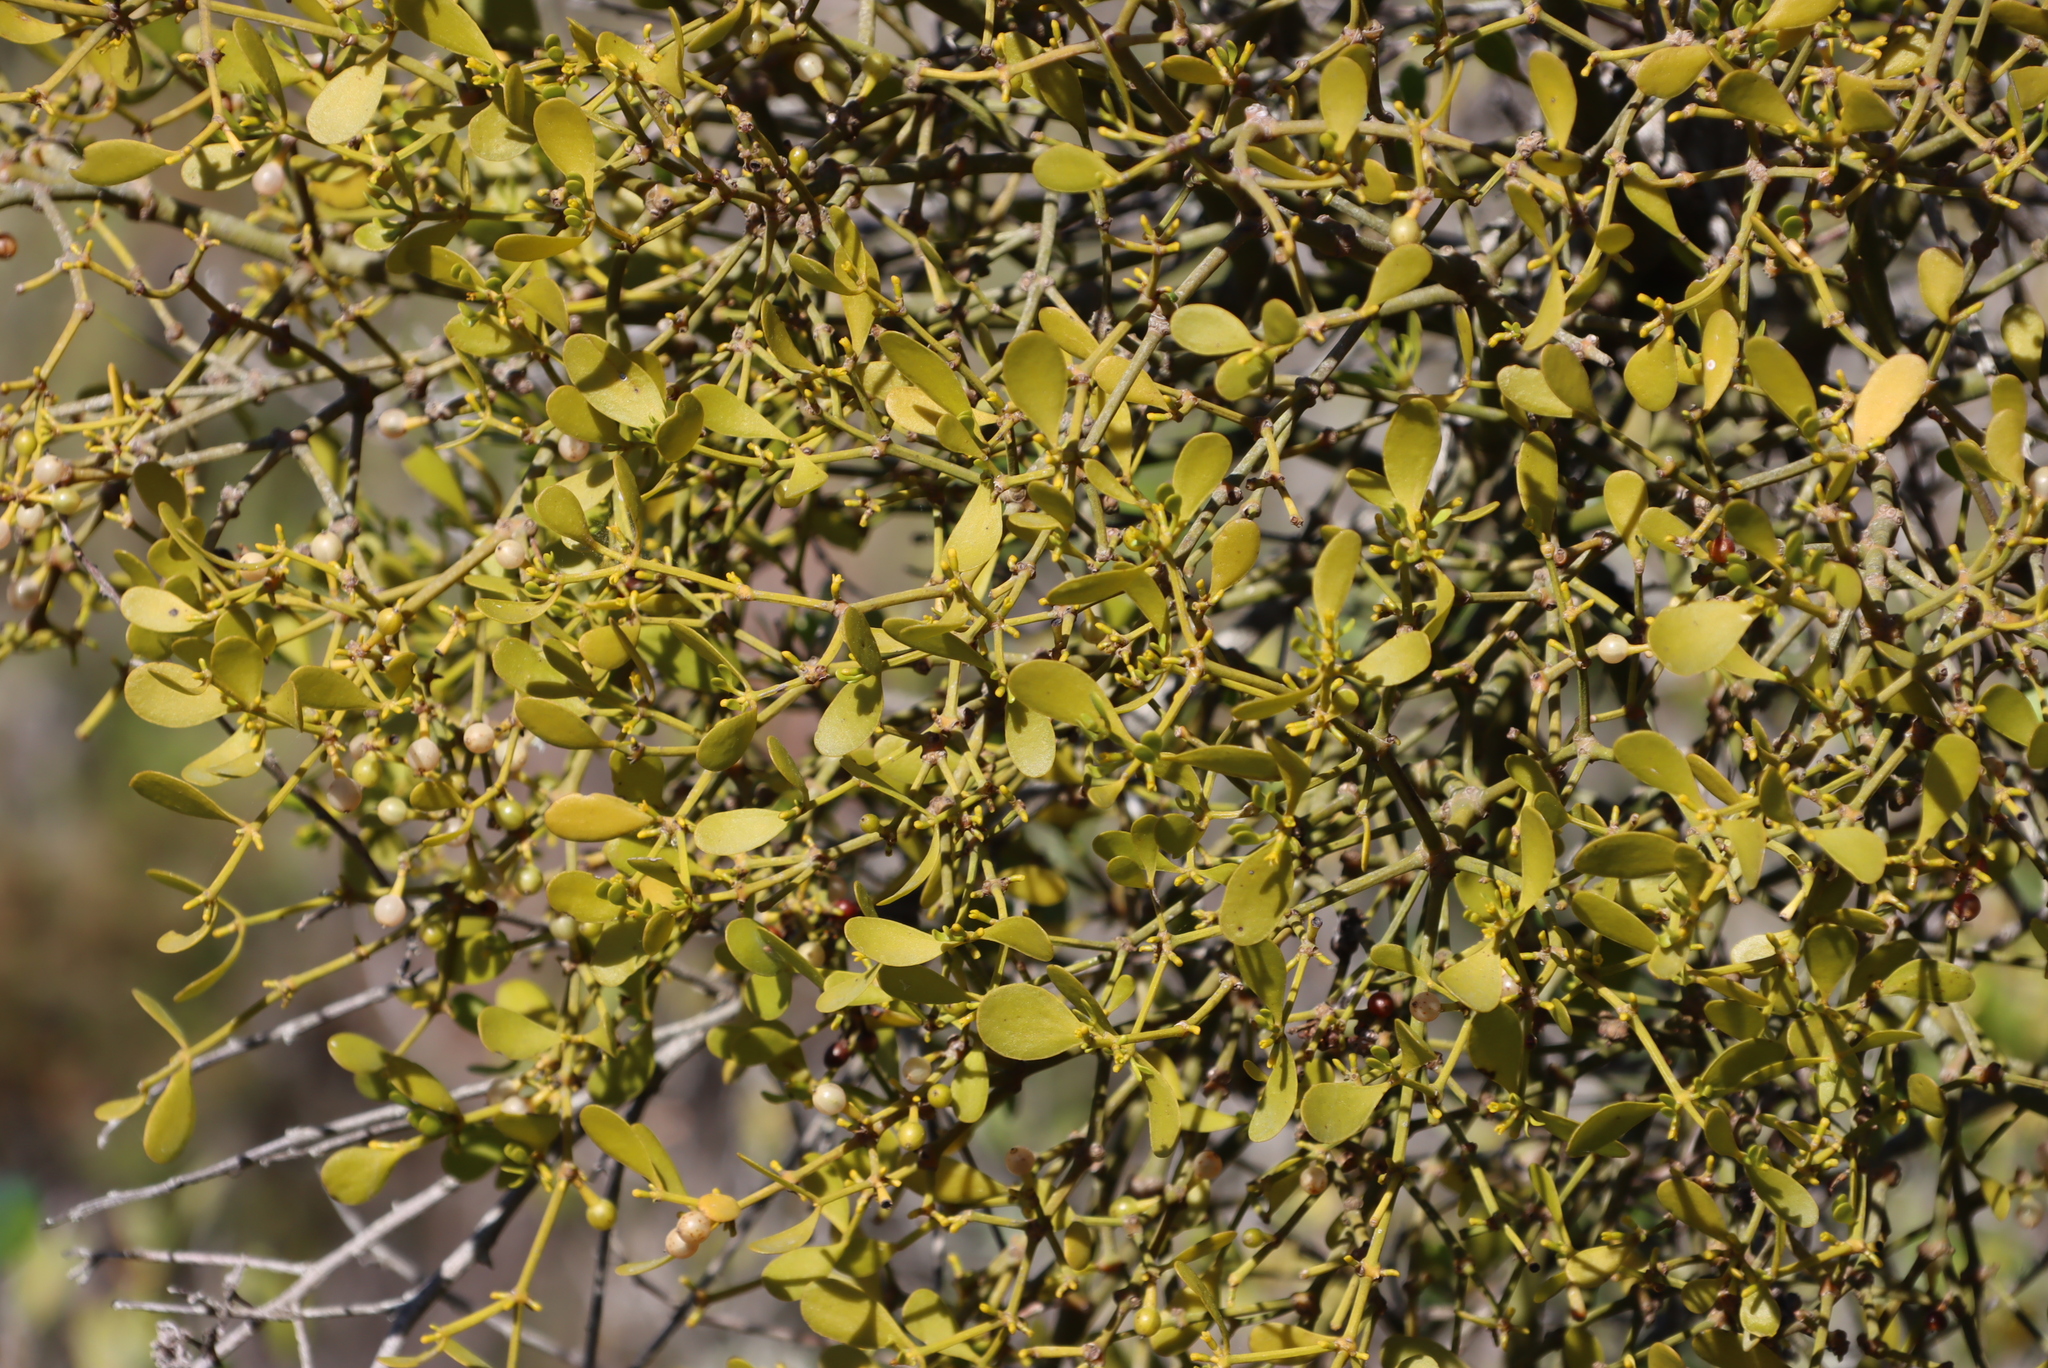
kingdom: Plantae
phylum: Tracheophyta
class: Magnoliopsida
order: Santalales
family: Viscaceae
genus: Viscum
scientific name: Viscum rotundifolium
